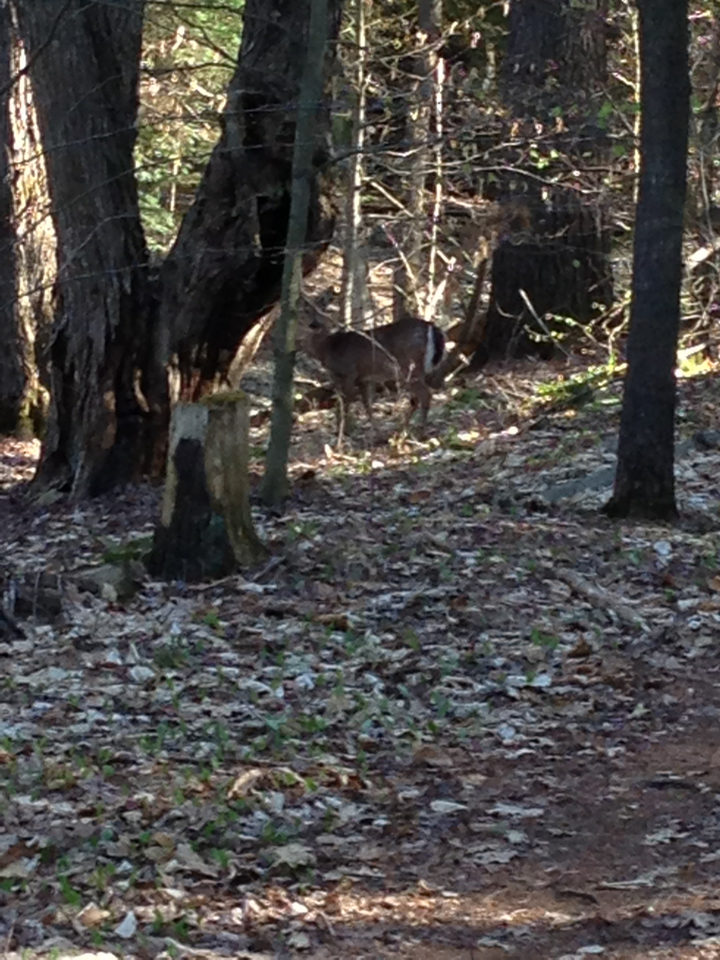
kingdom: Animalia
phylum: Chordata
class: Mammalia
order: Artiodactyla
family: Cervidae
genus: Odocoileus
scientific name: Odocoileus virginianus
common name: White-tailed deer
